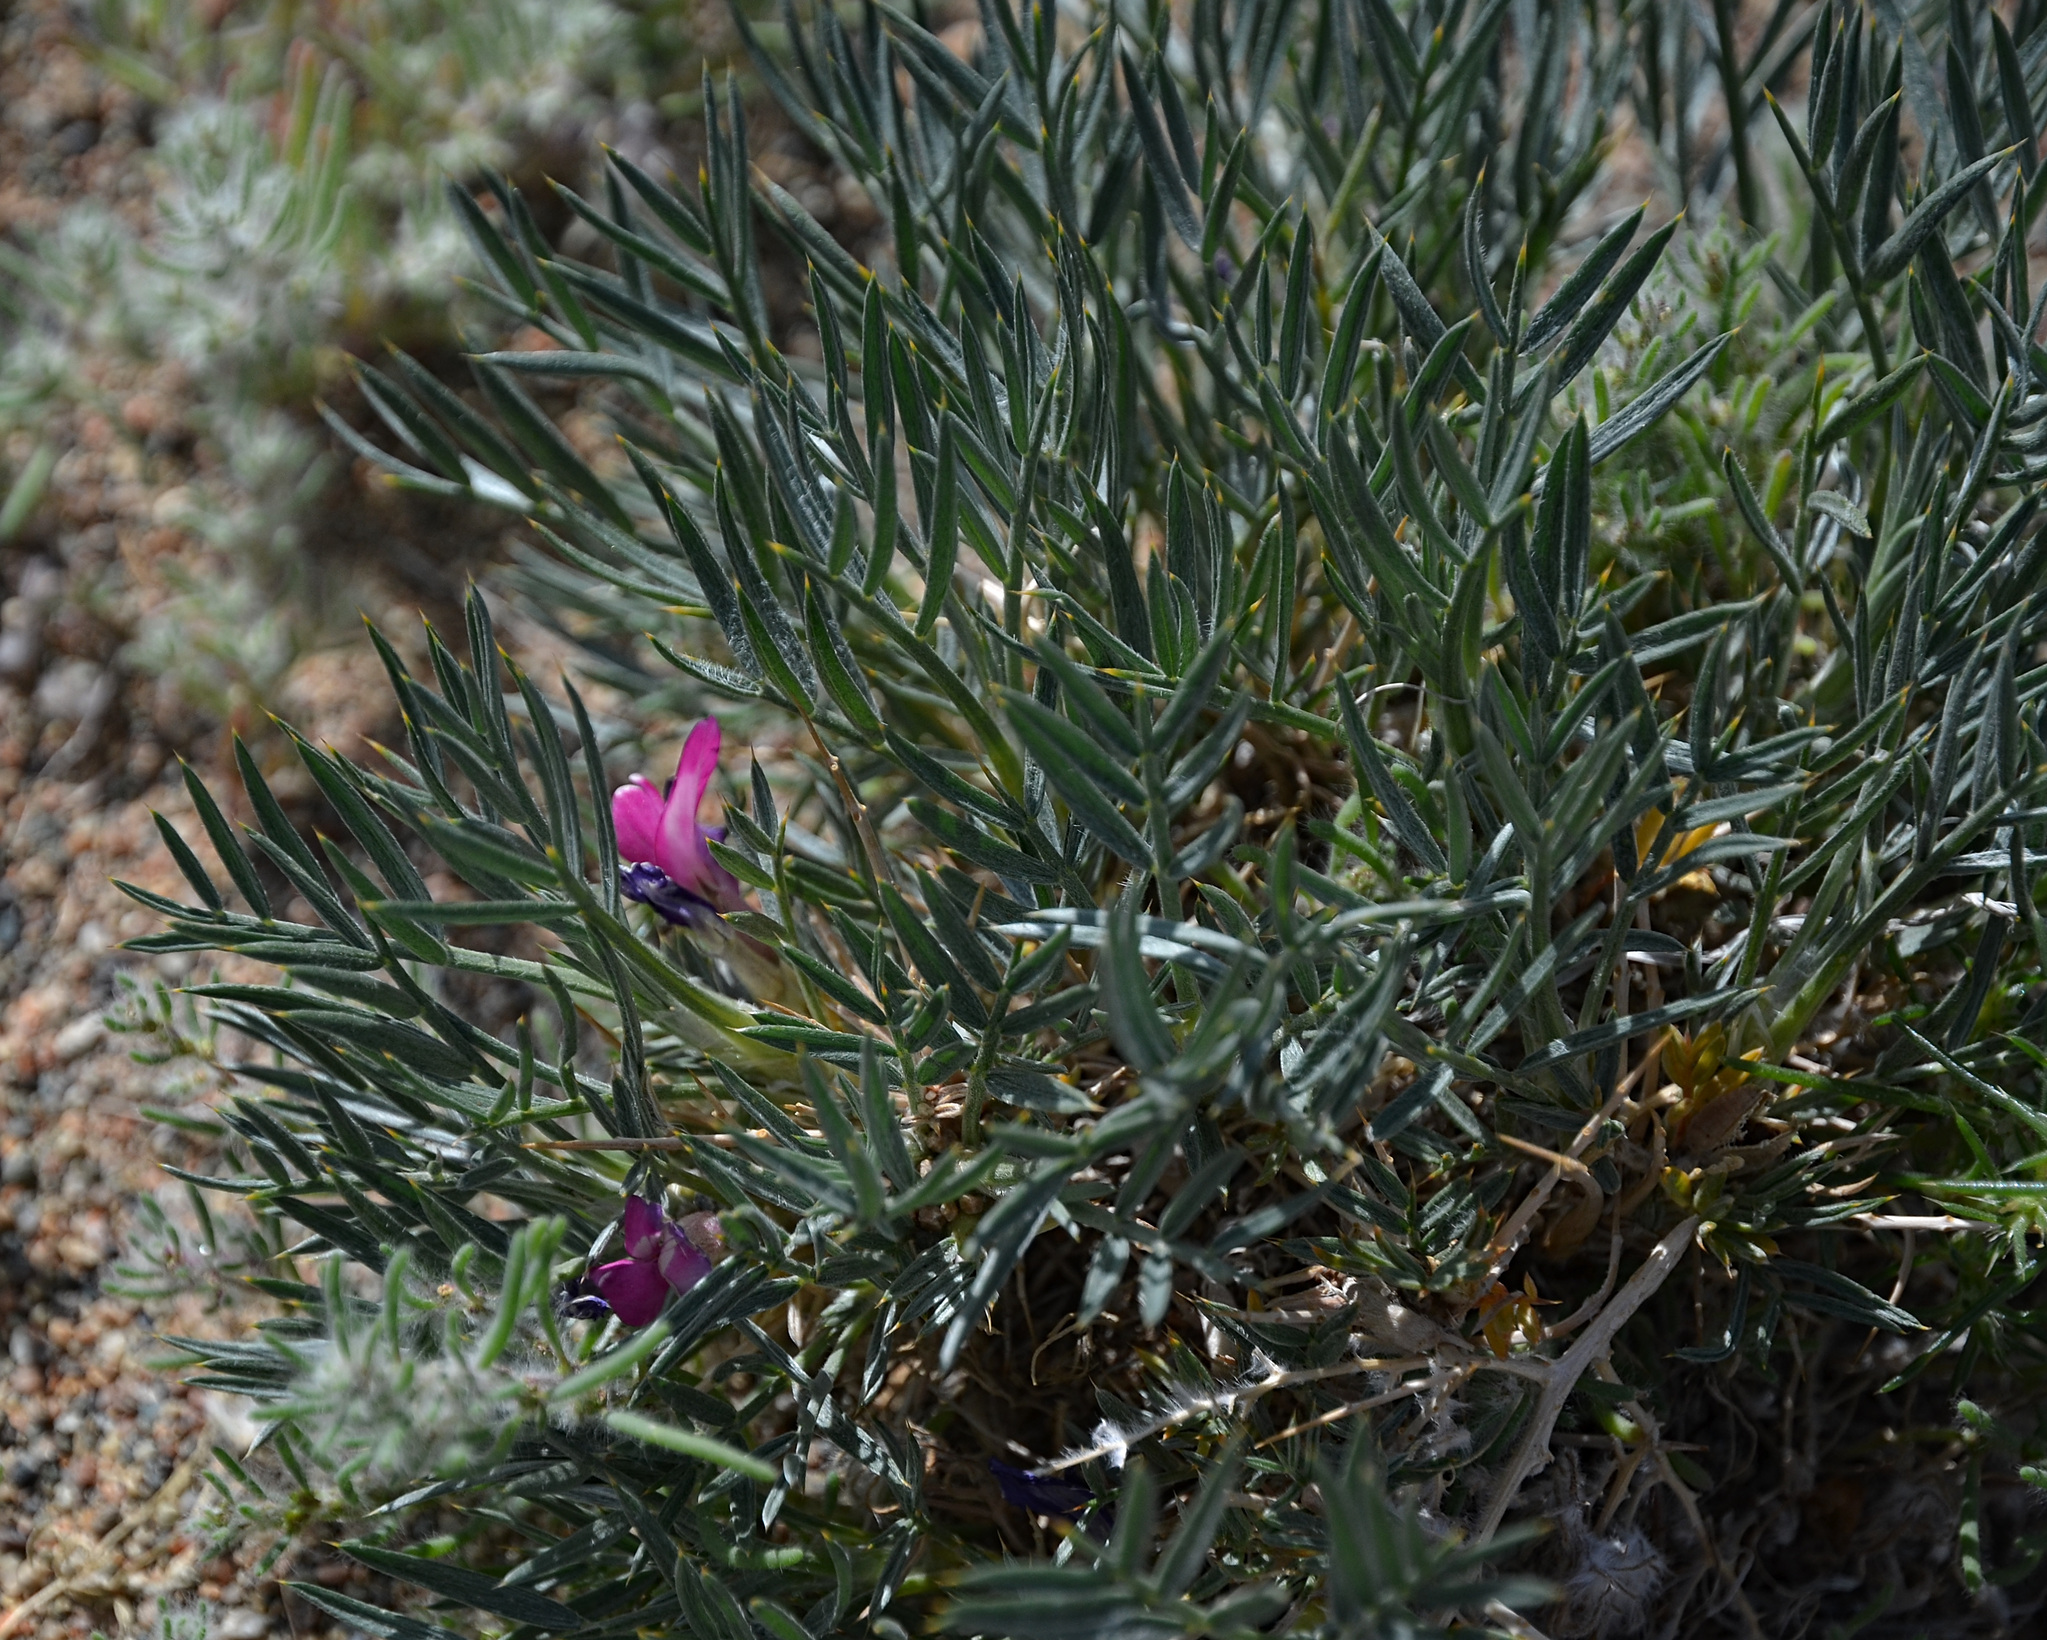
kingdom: Plantae
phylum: Tracheophyta
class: Magnoliopsida
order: Fabales
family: Fabaceae
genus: Oxytropis
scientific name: Oxytropis aciphylla
